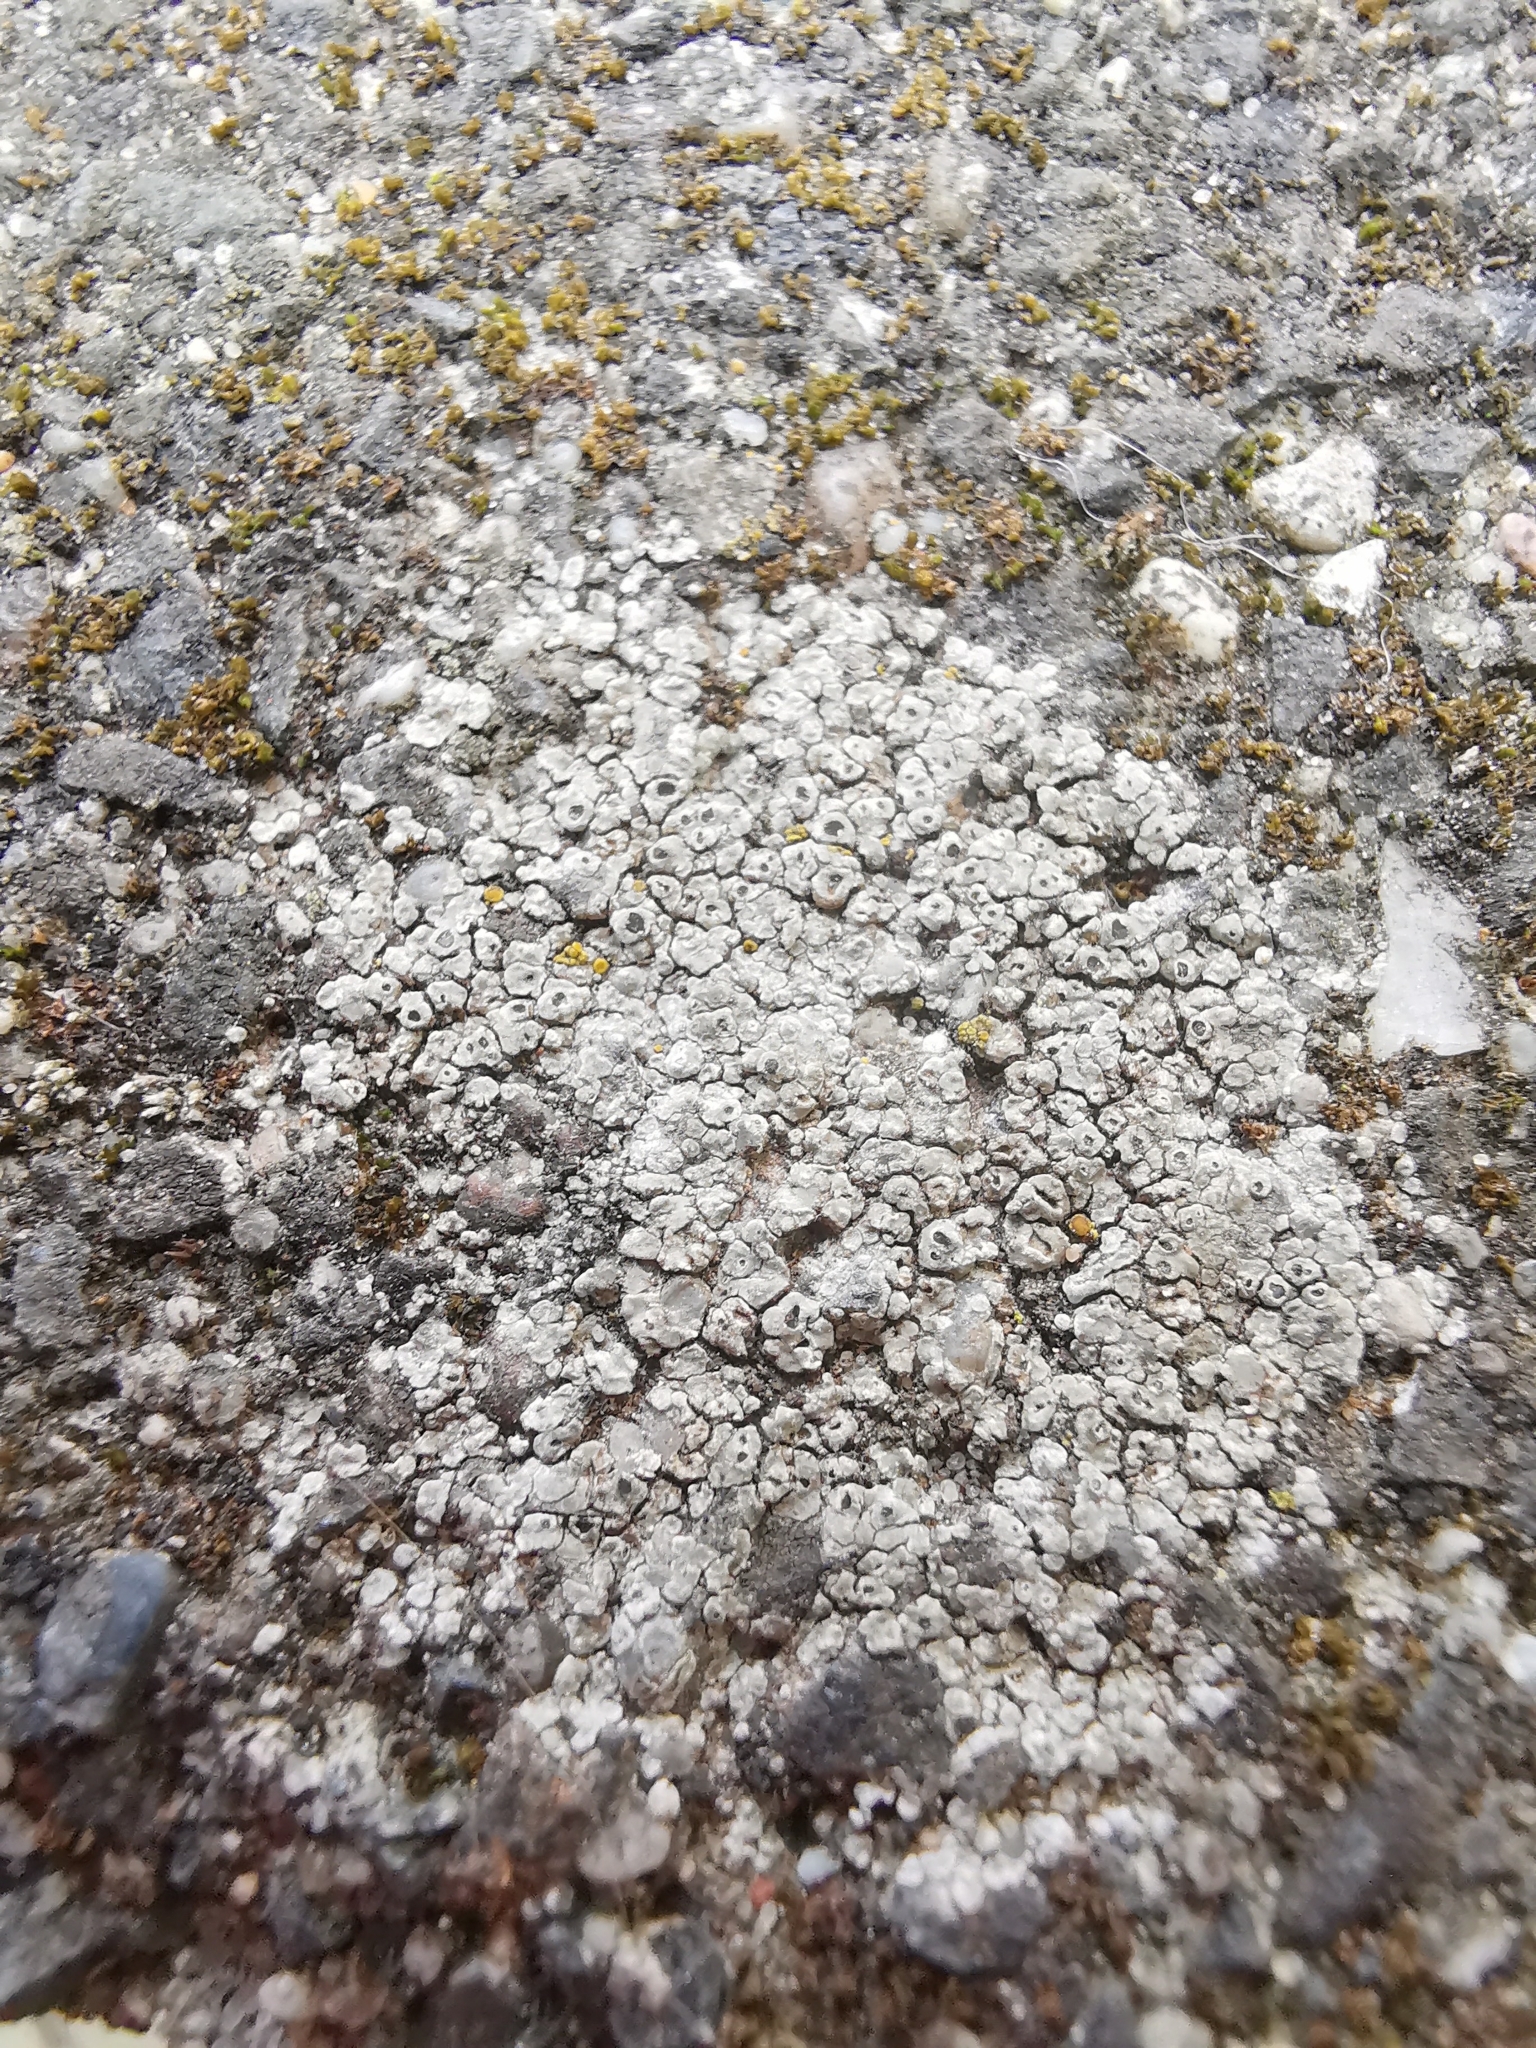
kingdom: Fungi
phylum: Ascomycota
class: Lecanoromycetes
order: Pertusariales
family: Megasporaceae
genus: Circinaria
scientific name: Circinaria contorta
